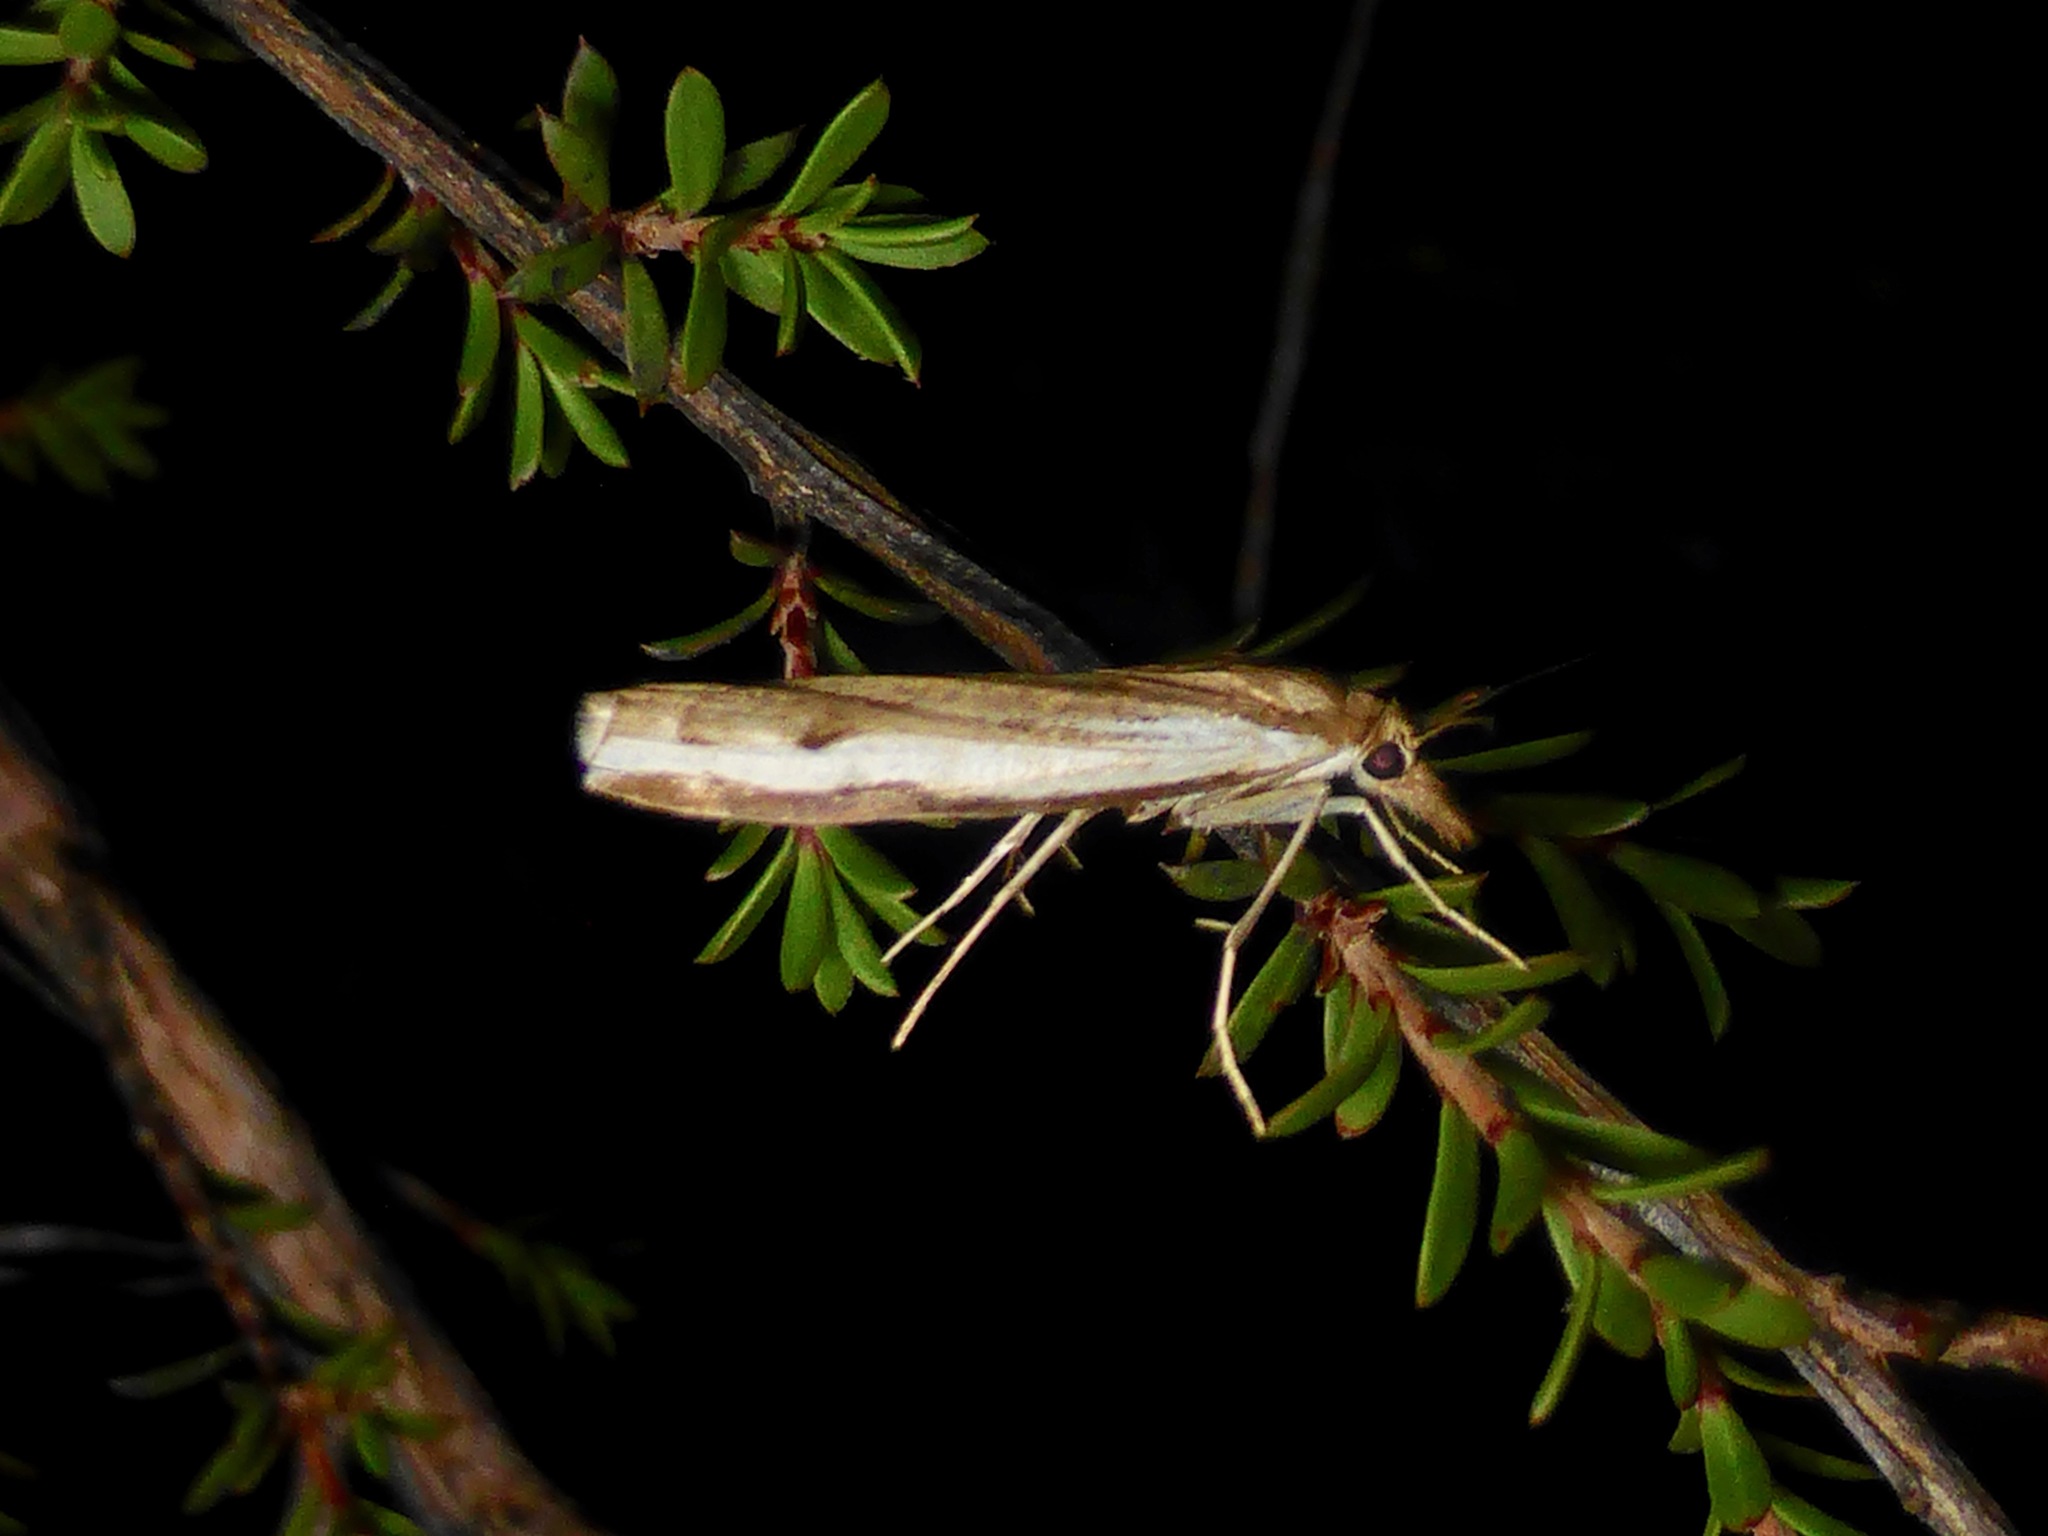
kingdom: Animalia
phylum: Arthropoda
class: Insecta
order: Lepidoptera
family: Crambidae
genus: Orocrambus
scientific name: Orocrambus flexuosellus
